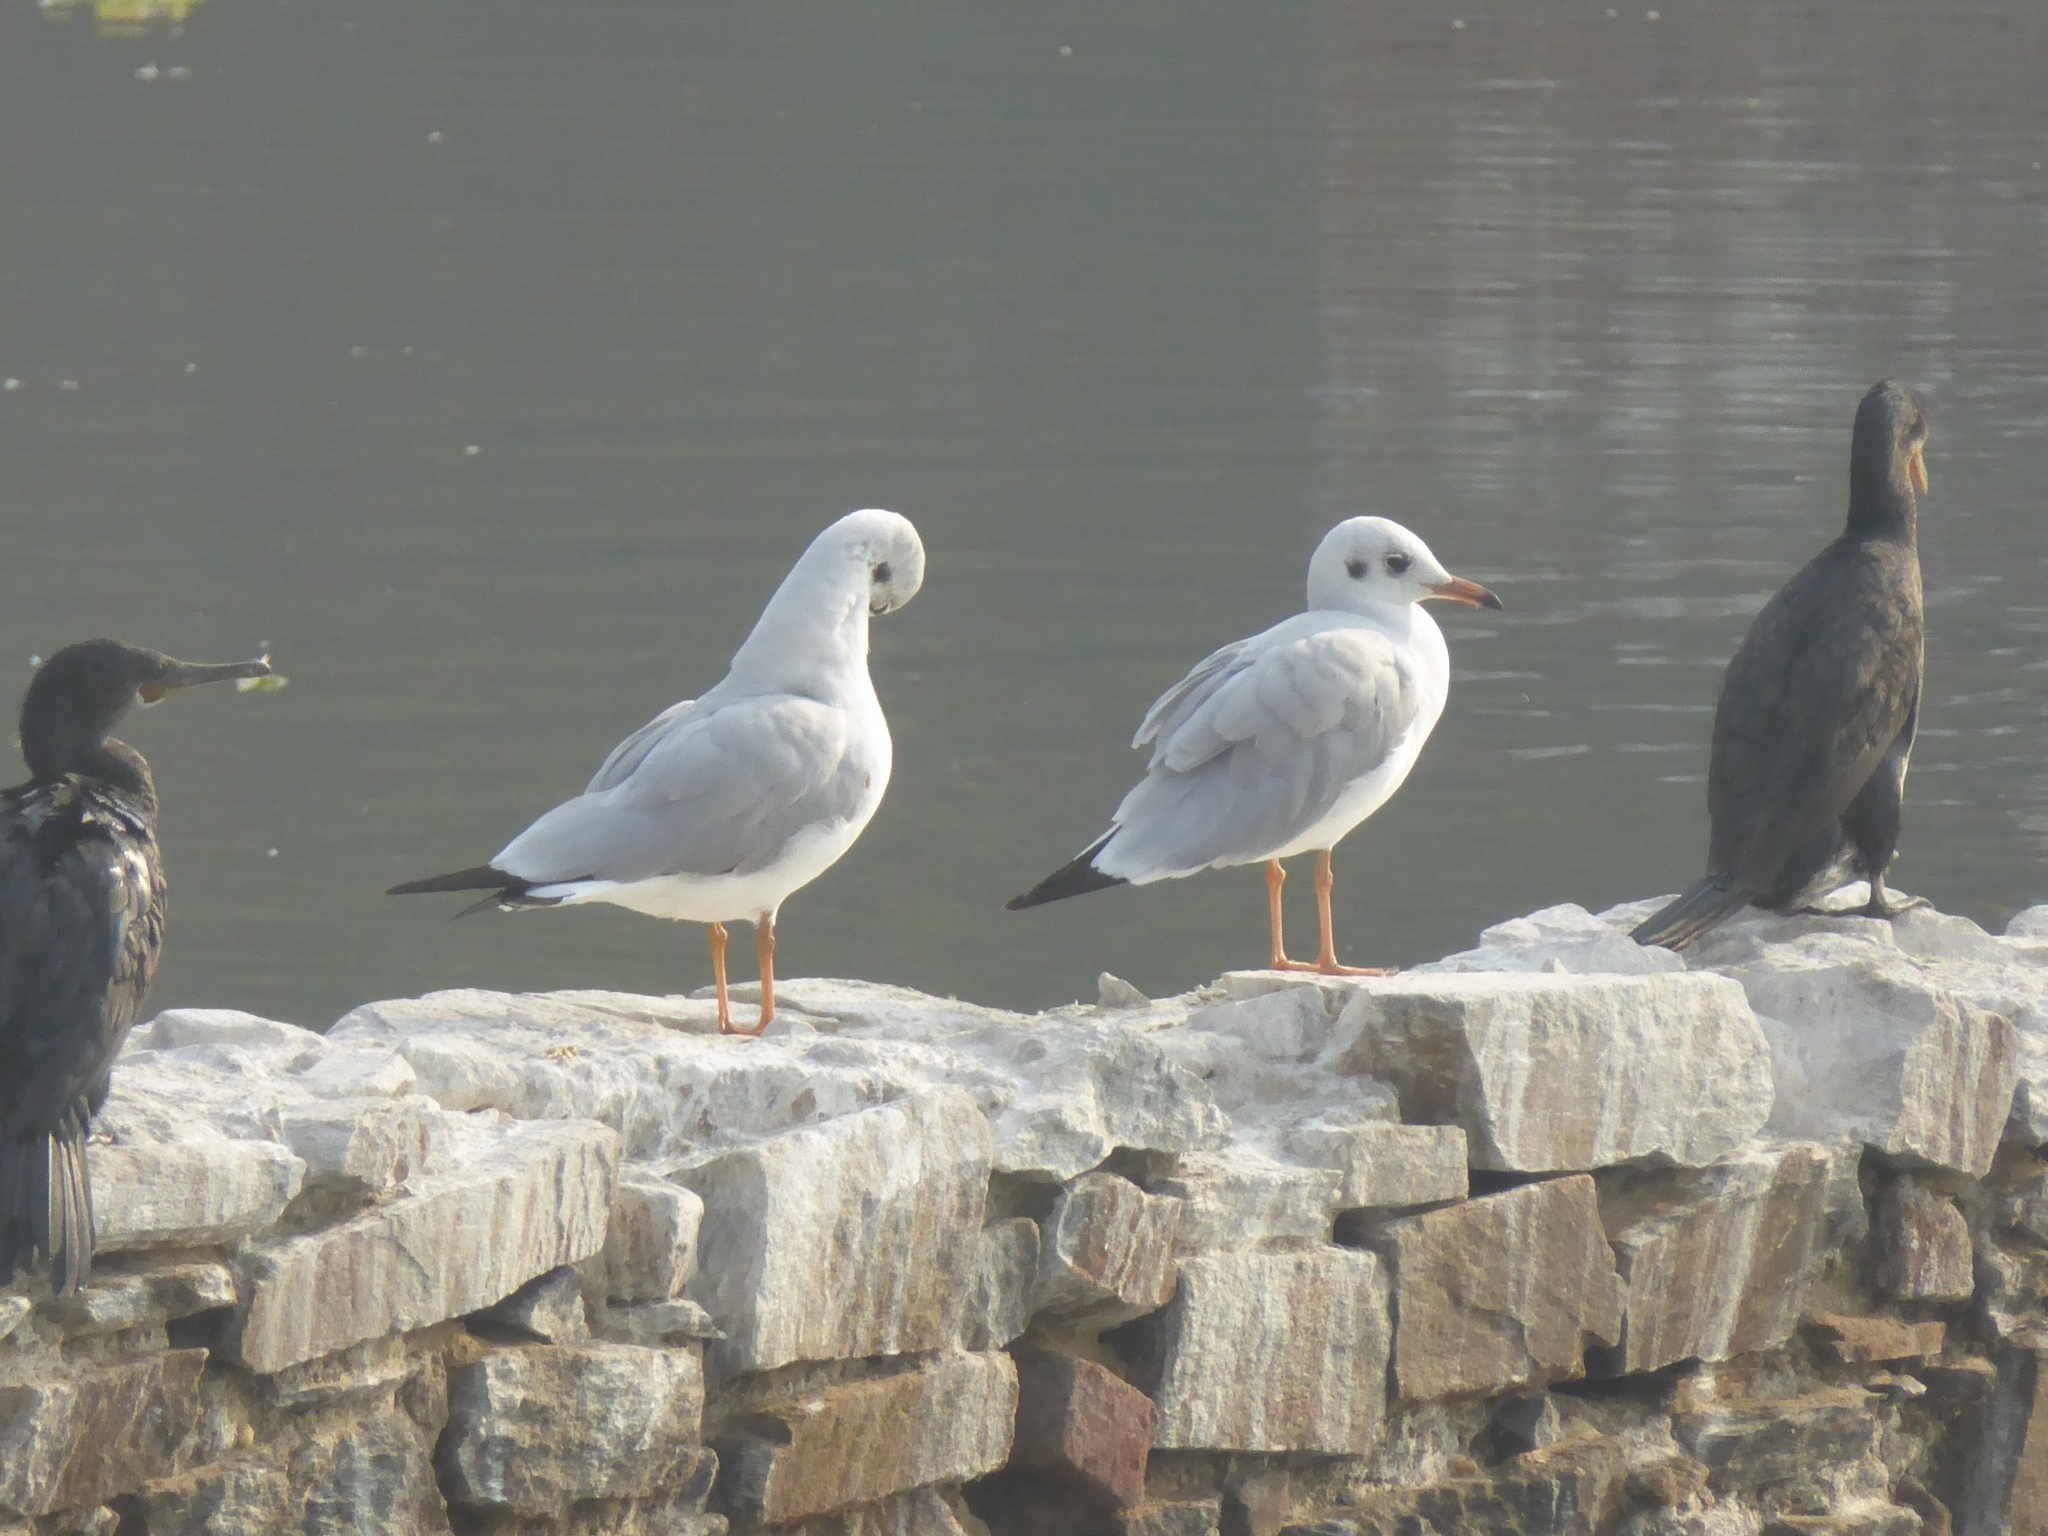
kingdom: Animalia
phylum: Chordata
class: Aves
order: Charadriiformes
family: Laridae
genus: Chroicocephalus
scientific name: Chroicocephalus brunnicephalus
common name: Brown-headed gull
